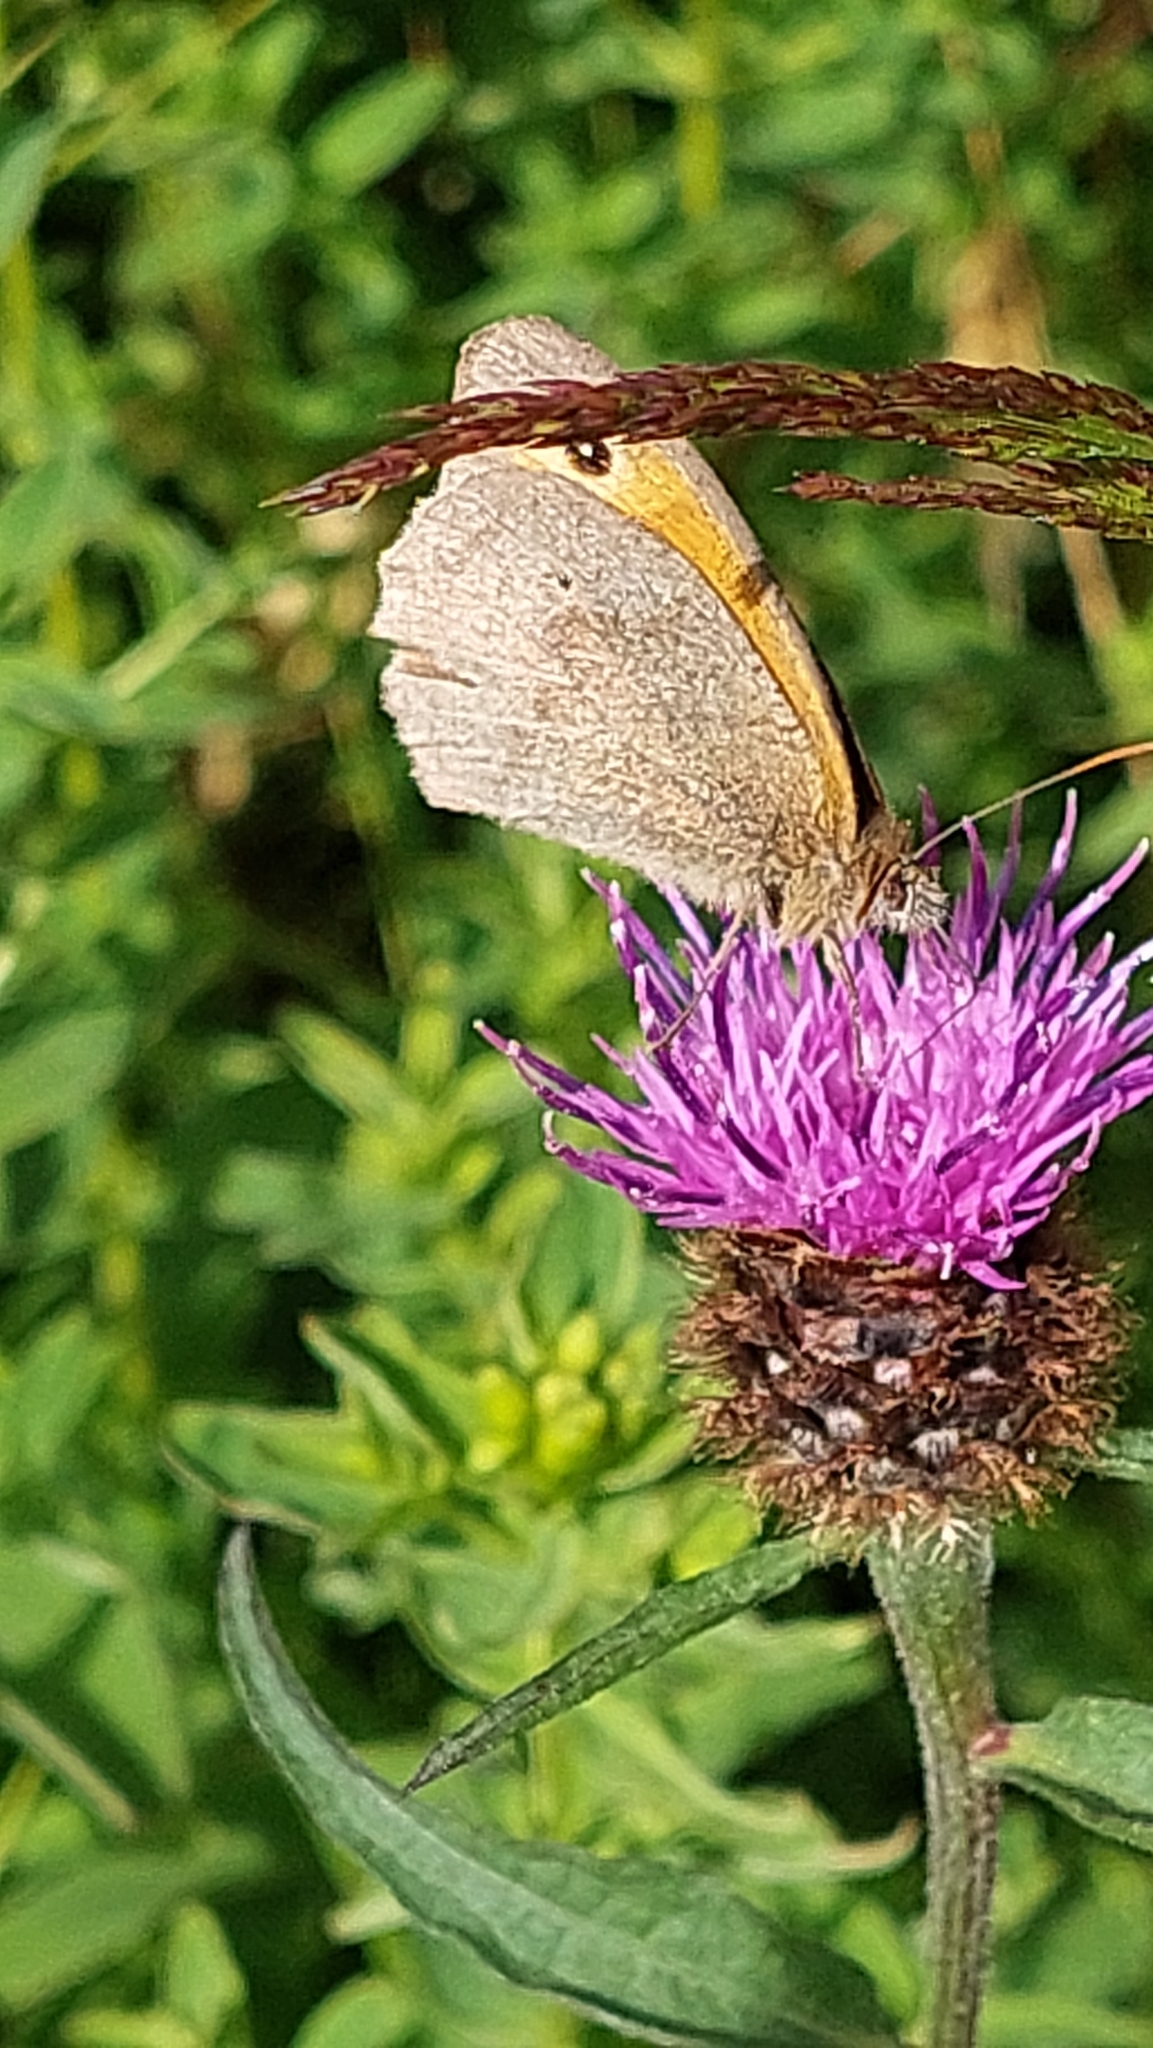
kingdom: Animalia
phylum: Arthropoda
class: Insecta
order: Lepidoptera
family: Nymphalidae
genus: Maniola
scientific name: Maniola jurtina
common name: Meadow brown
